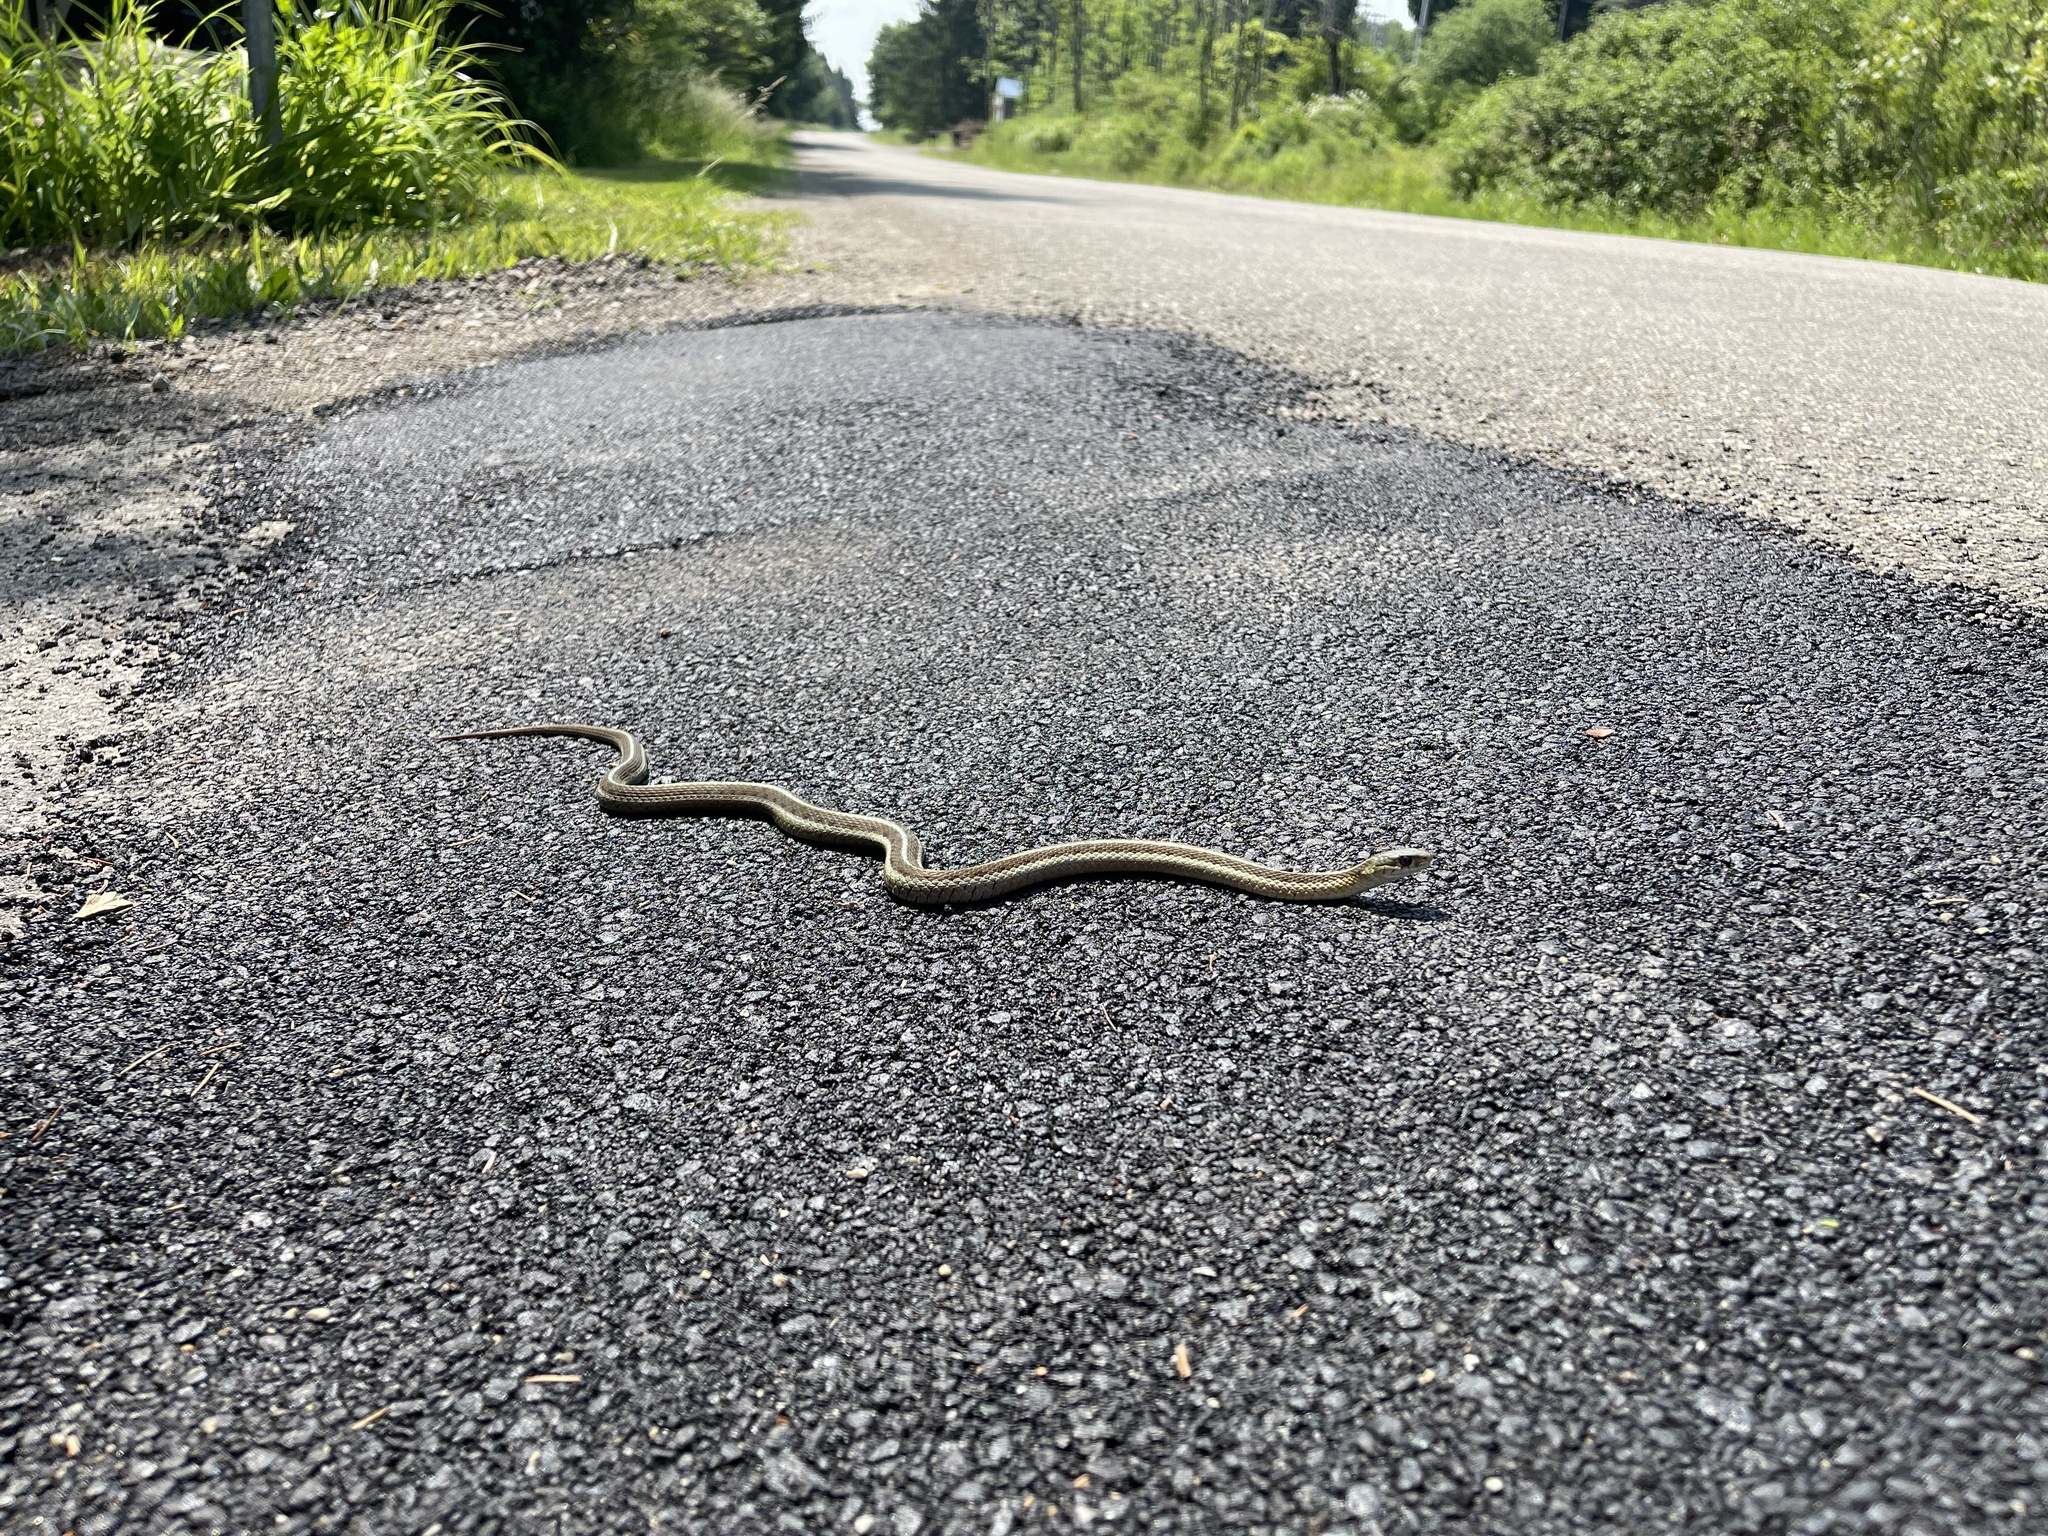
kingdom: Animalia
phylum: Chordata
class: Squamata
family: Colubridae
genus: Thamnophis
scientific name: Thamnophis sirtalis
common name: Common garter snake
